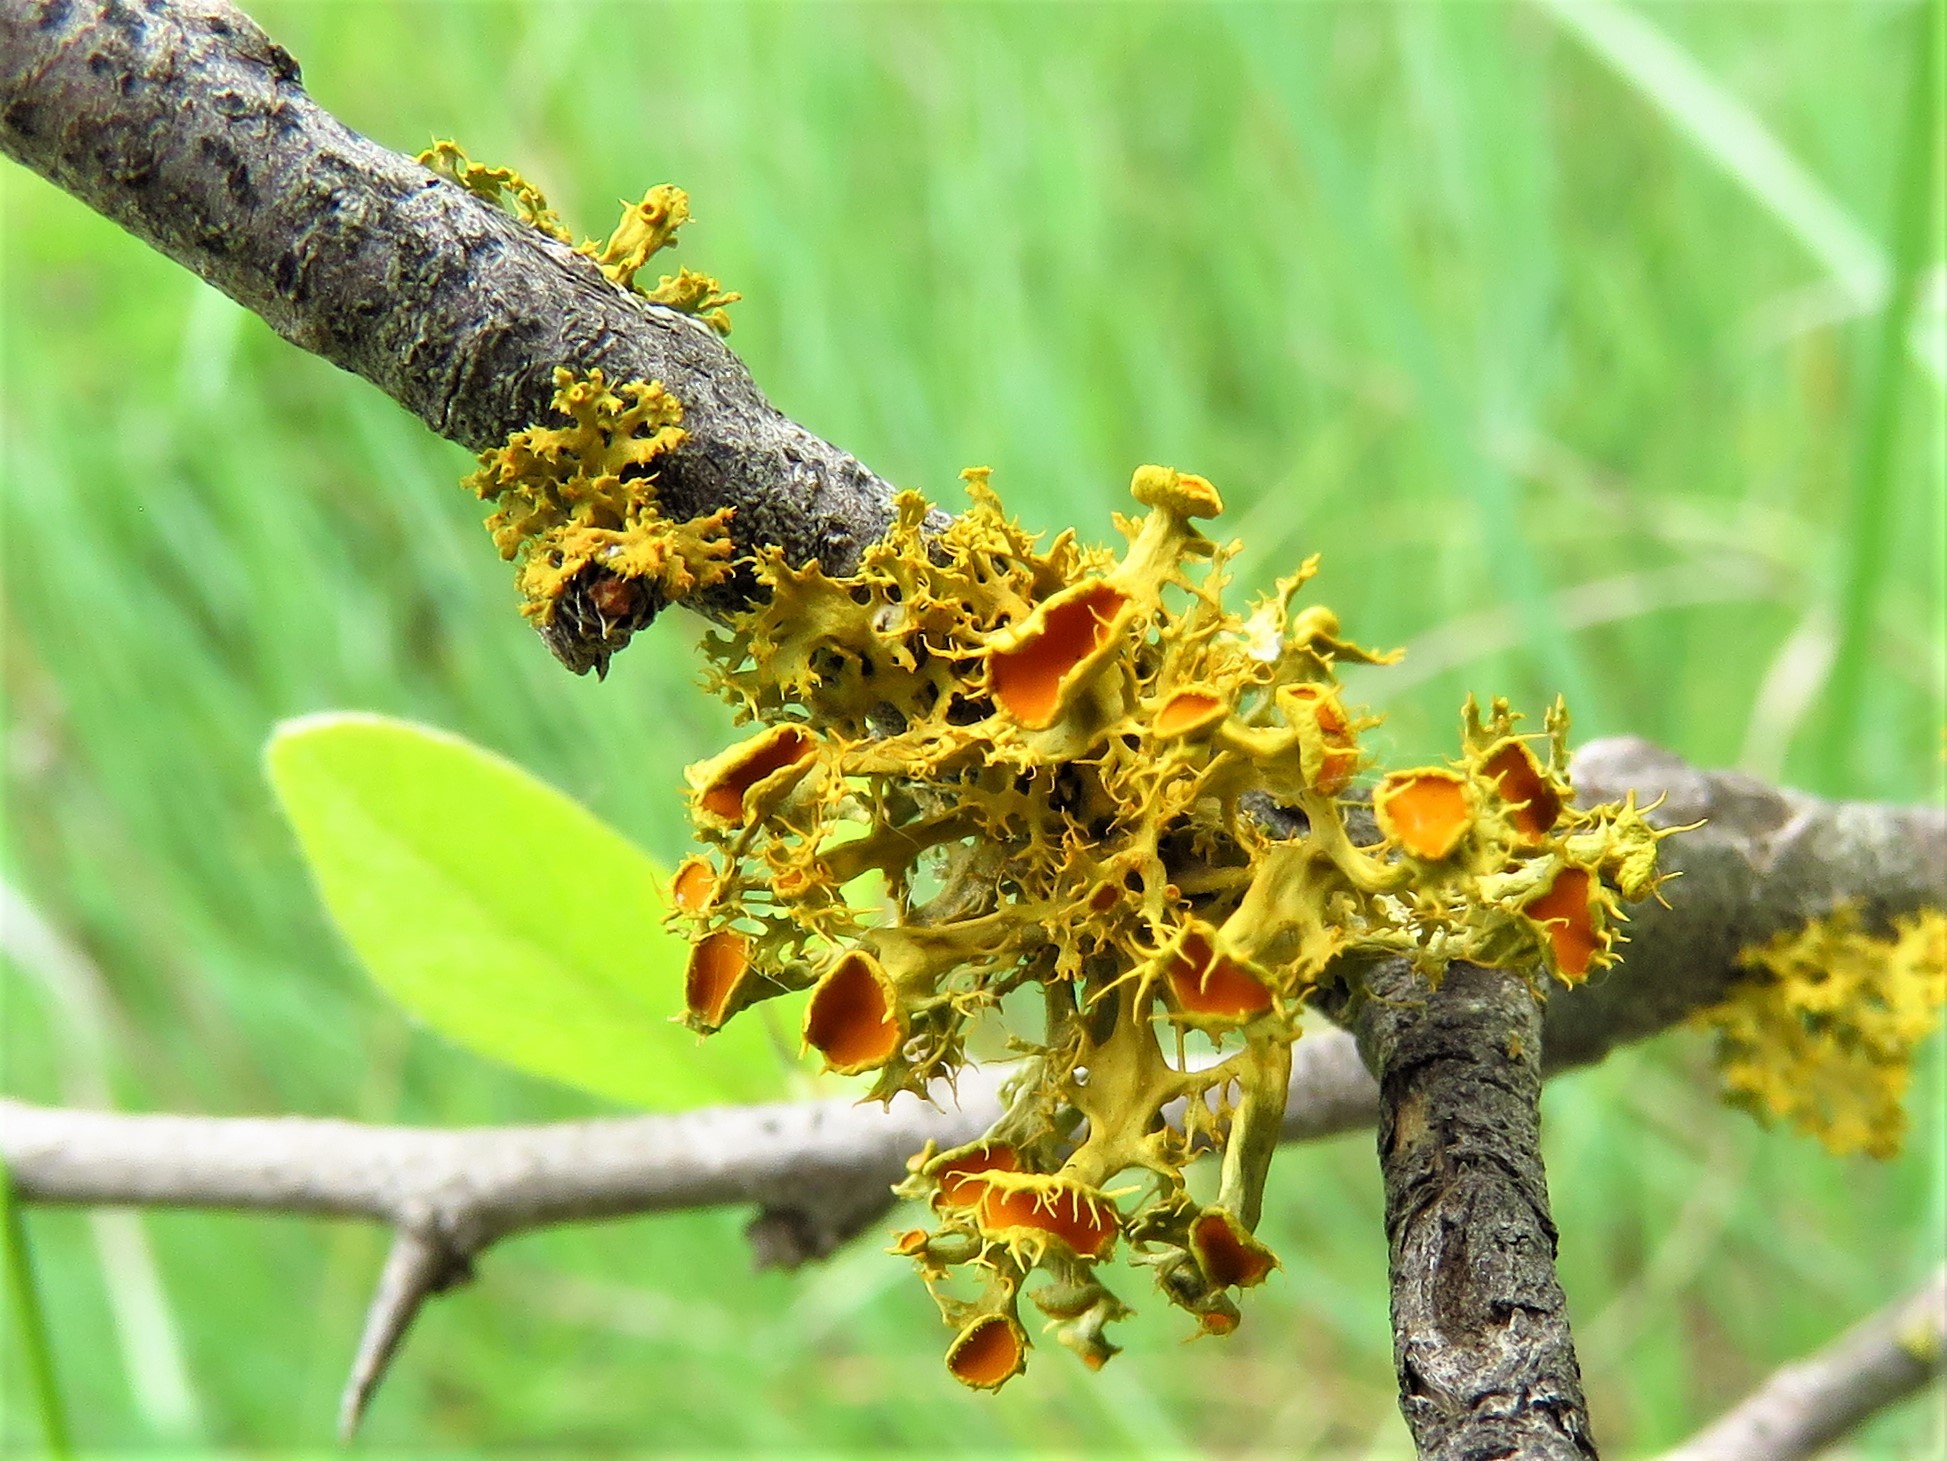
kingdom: Fungi
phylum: Ascomycota
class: Lecanoromycetes
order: Teloschistales
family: Teloschistaceae
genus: Niorma
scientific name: Niorma chrysophthalma
